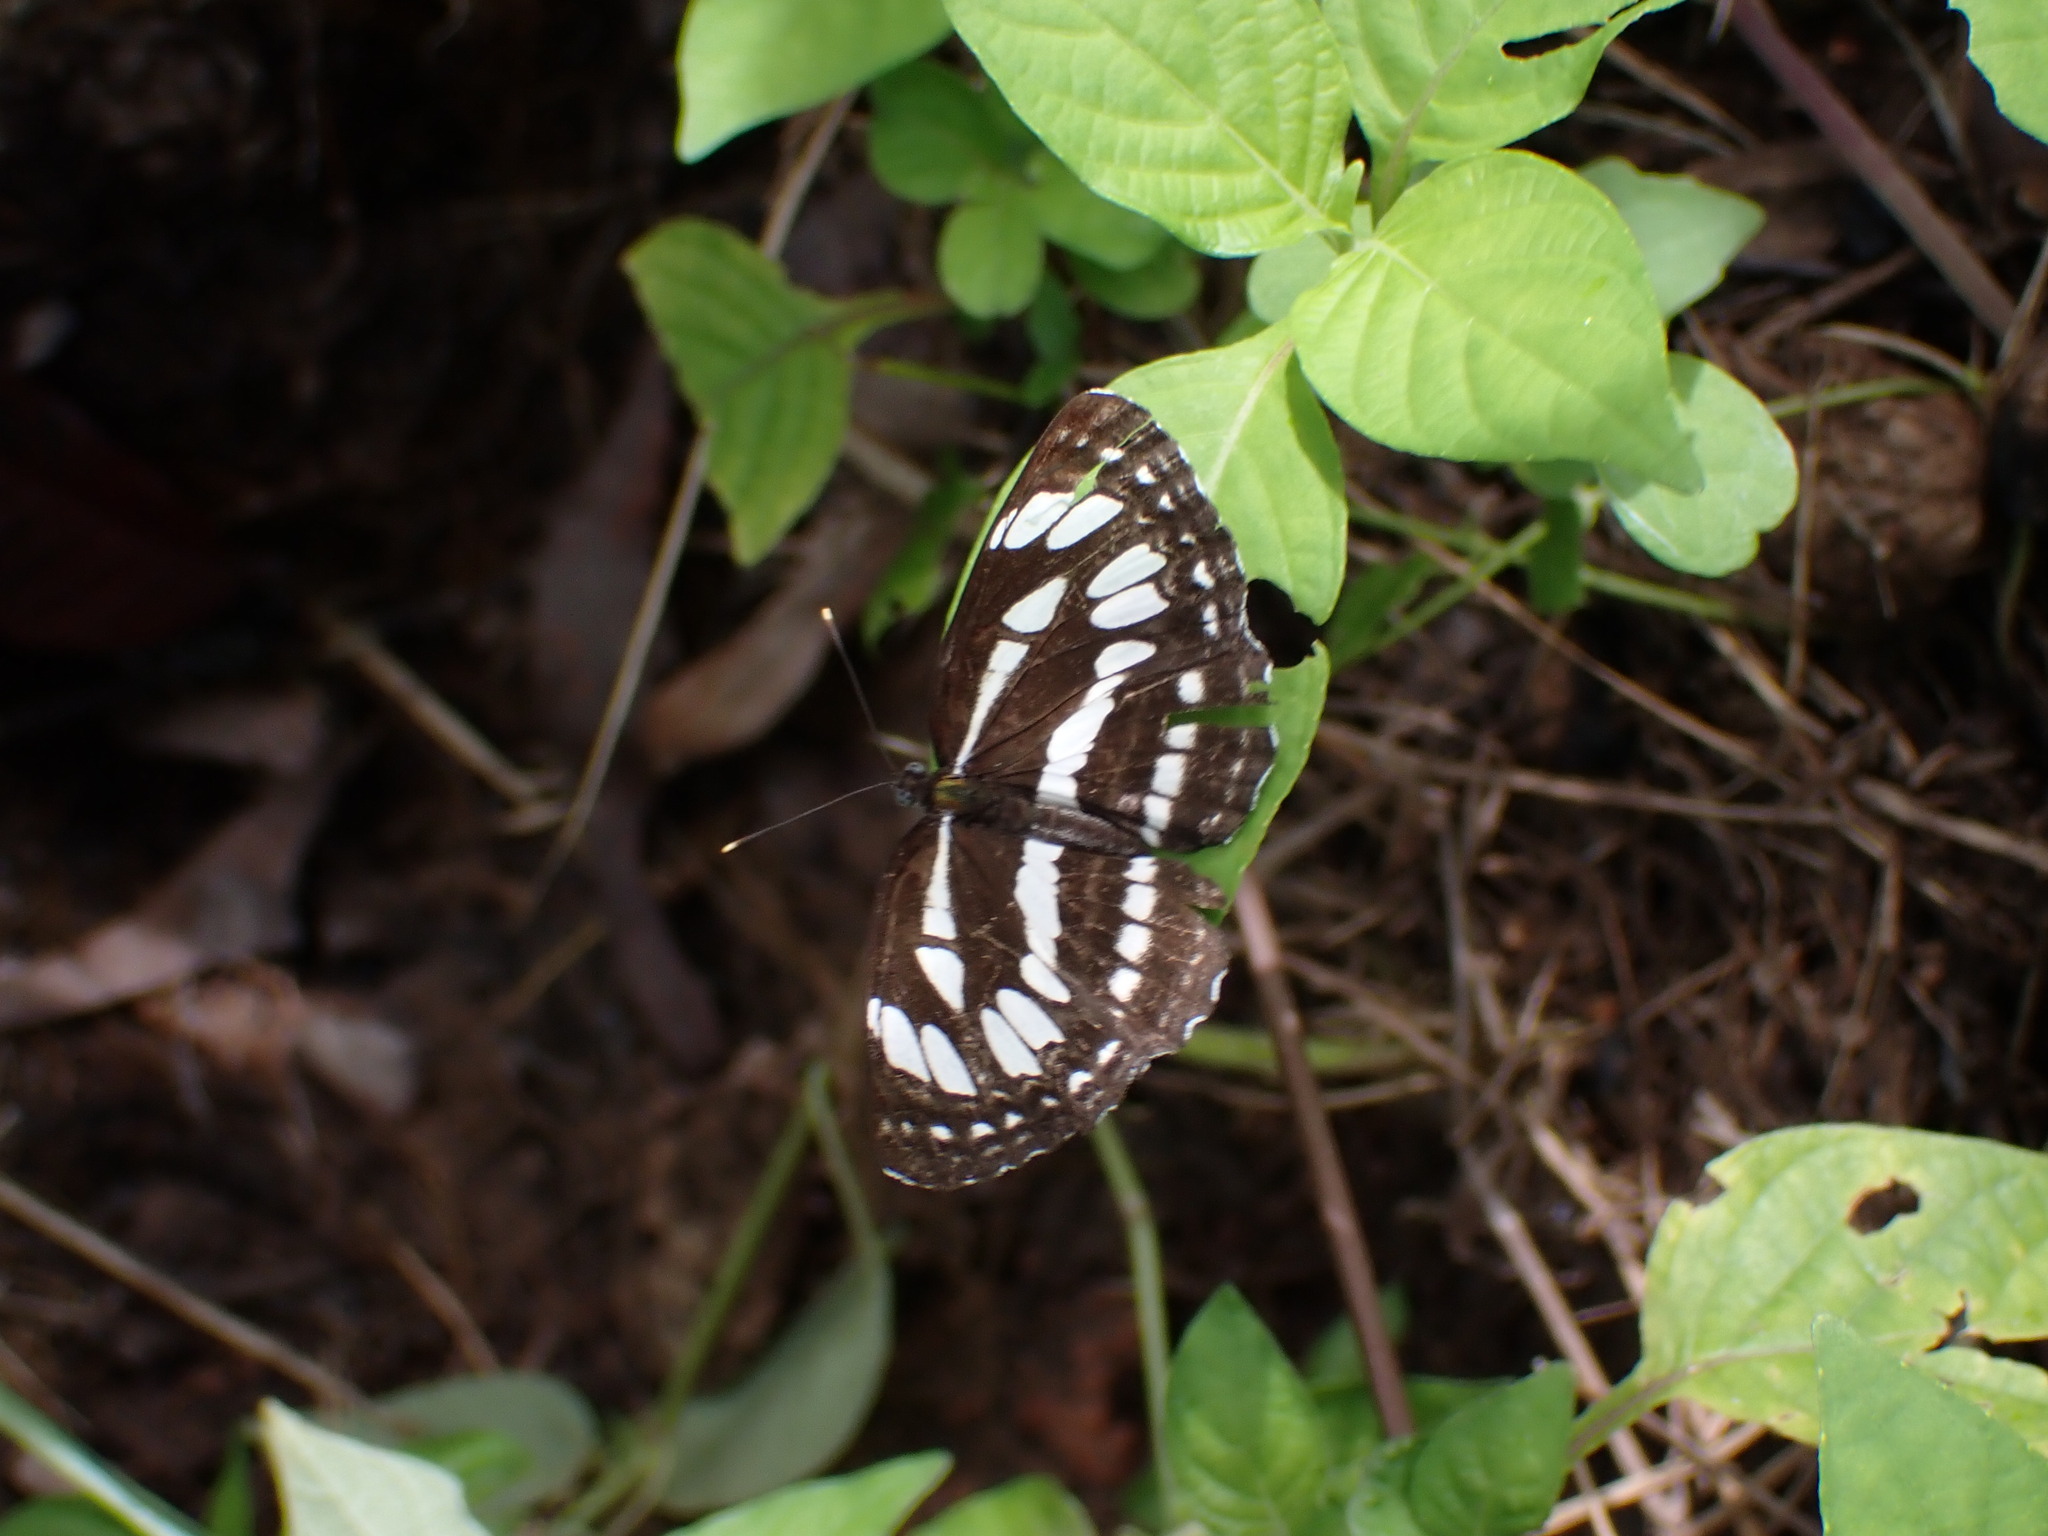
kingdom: Animalia
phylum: Arthropoda
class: Insecta
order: Lepidoptera
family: Nymphalidae
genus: Neptis
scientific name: Neptis hylas
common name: Common sailer
